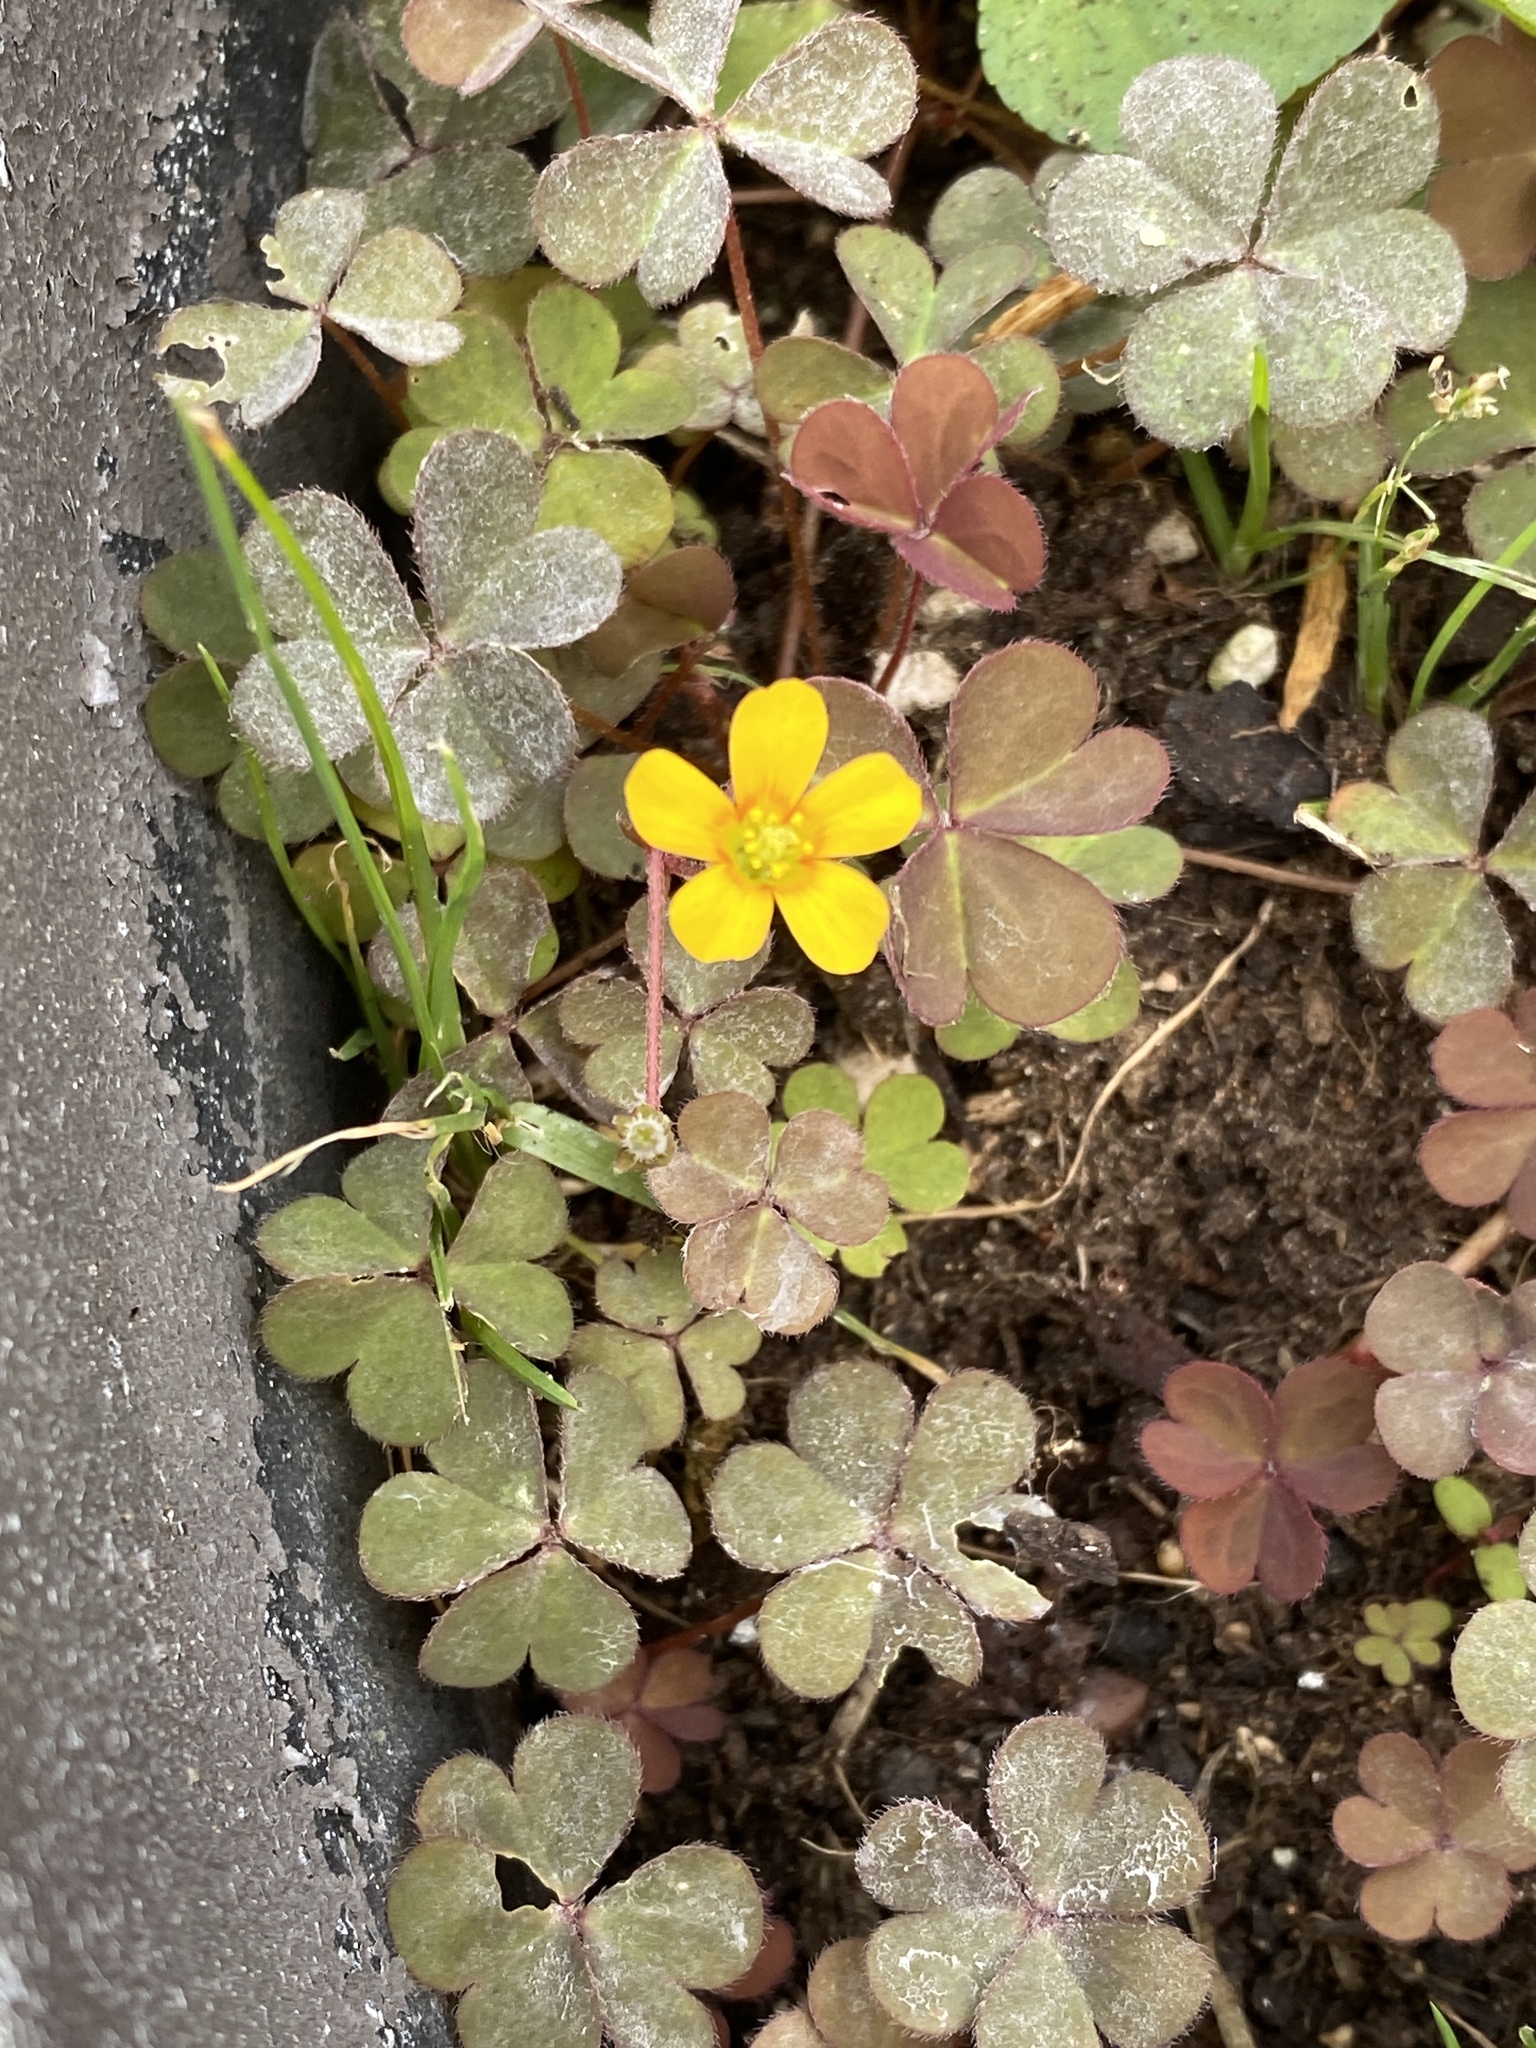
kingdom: Plantae
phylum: Tracheophyta
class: Magnoliopsida
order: Oxalidales
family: Oxalidaceae
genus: Oxalis
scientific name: Oxalis corniculata
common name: Procumbent yellow-sorrel
